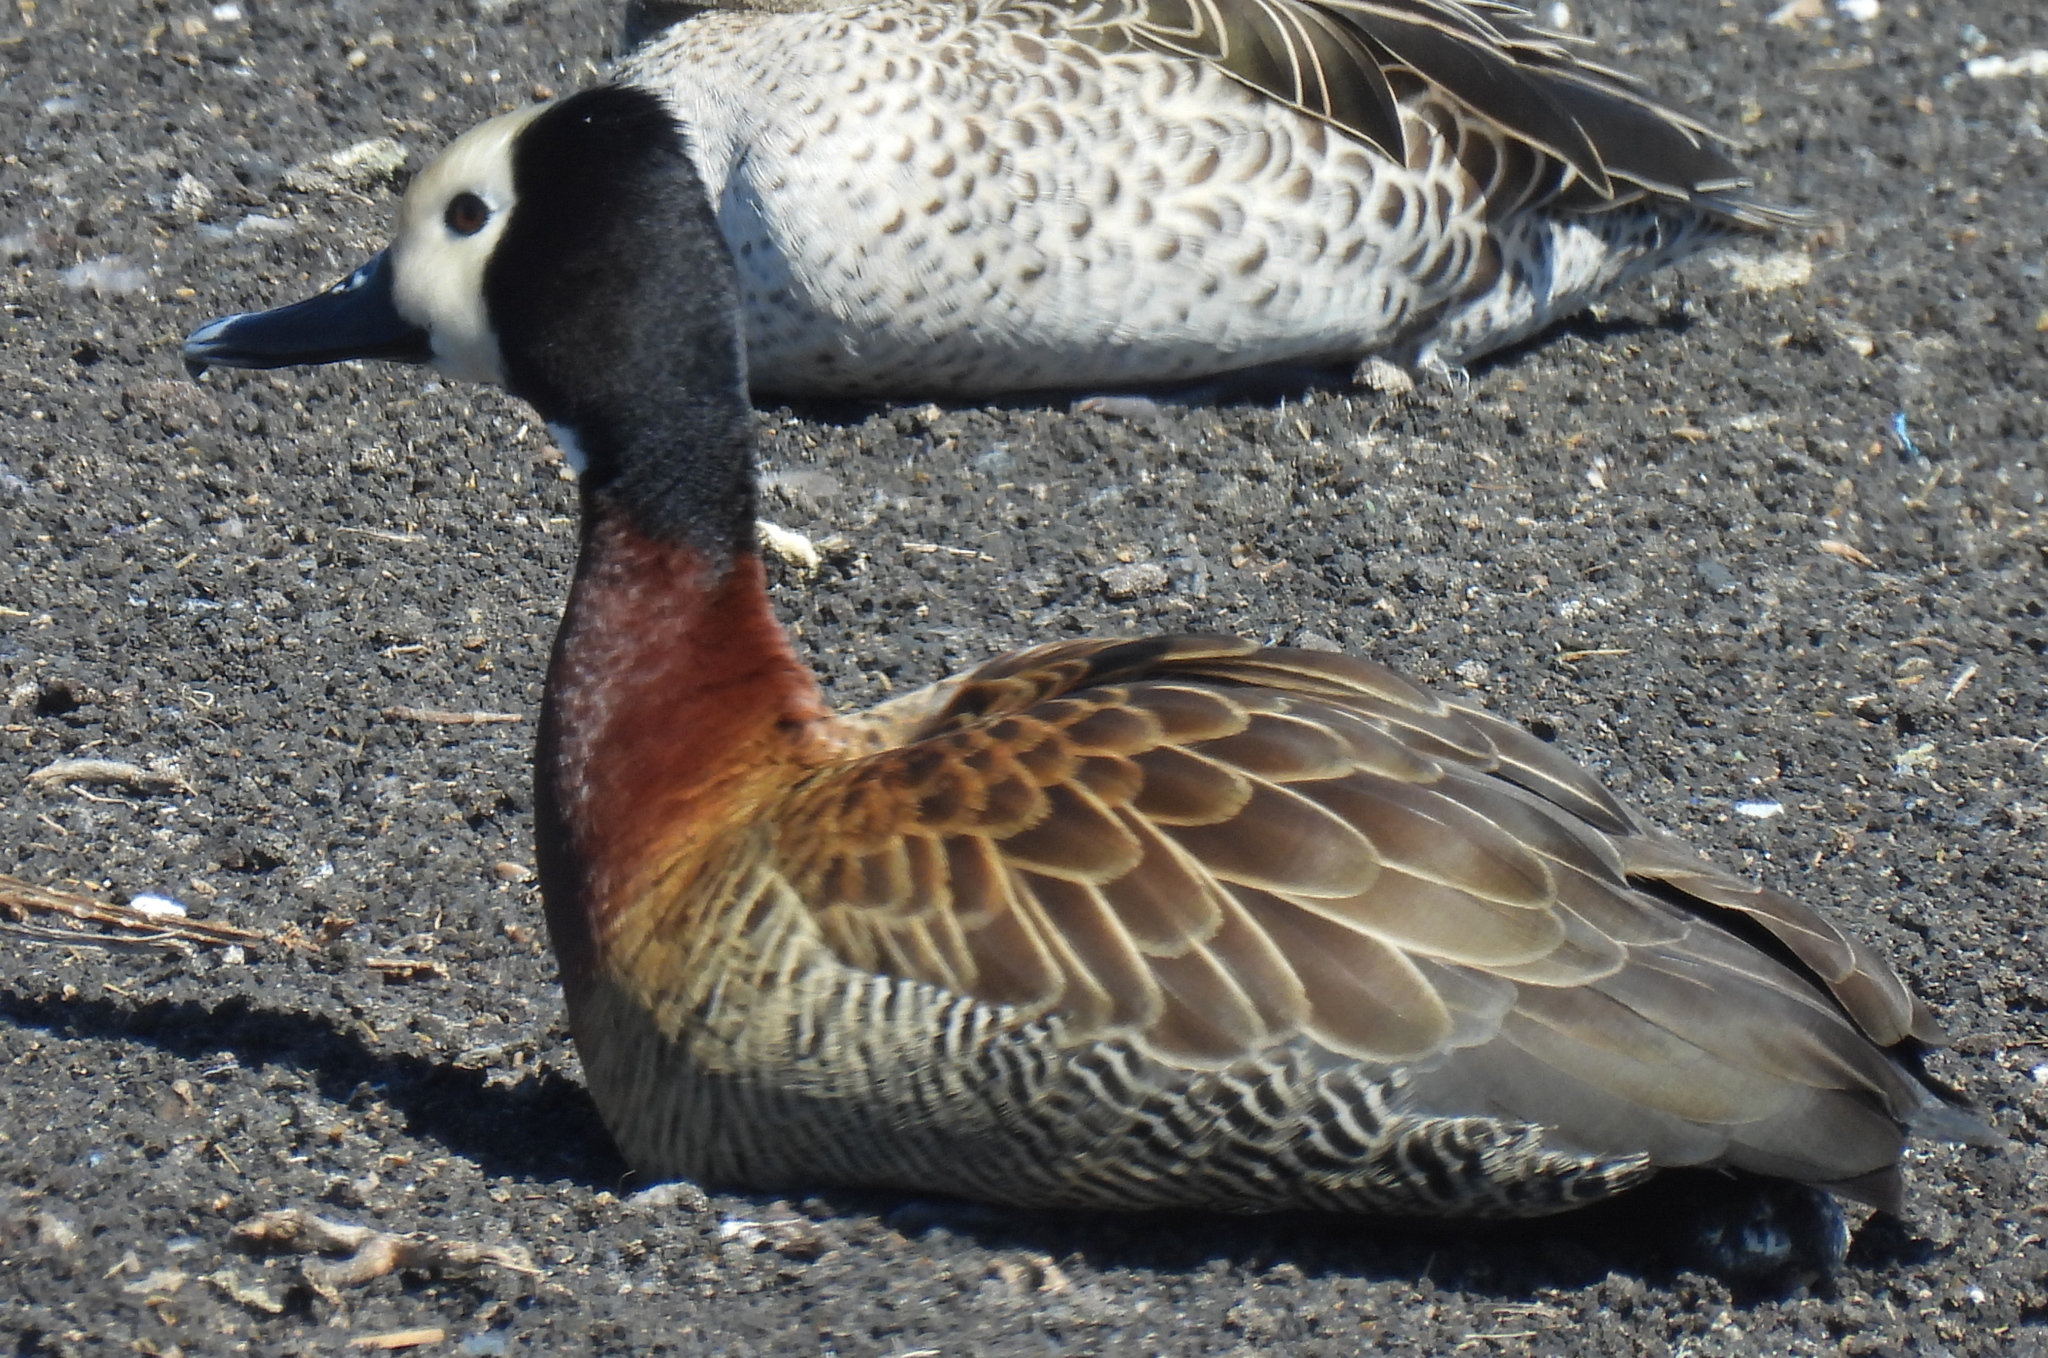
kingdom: Animalia
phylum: Chordata
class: Aves
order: Anseriformes
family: Anatidae
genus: Dendrocygna
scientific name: Dendrocygna viduata
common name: White-faced whistling duck
